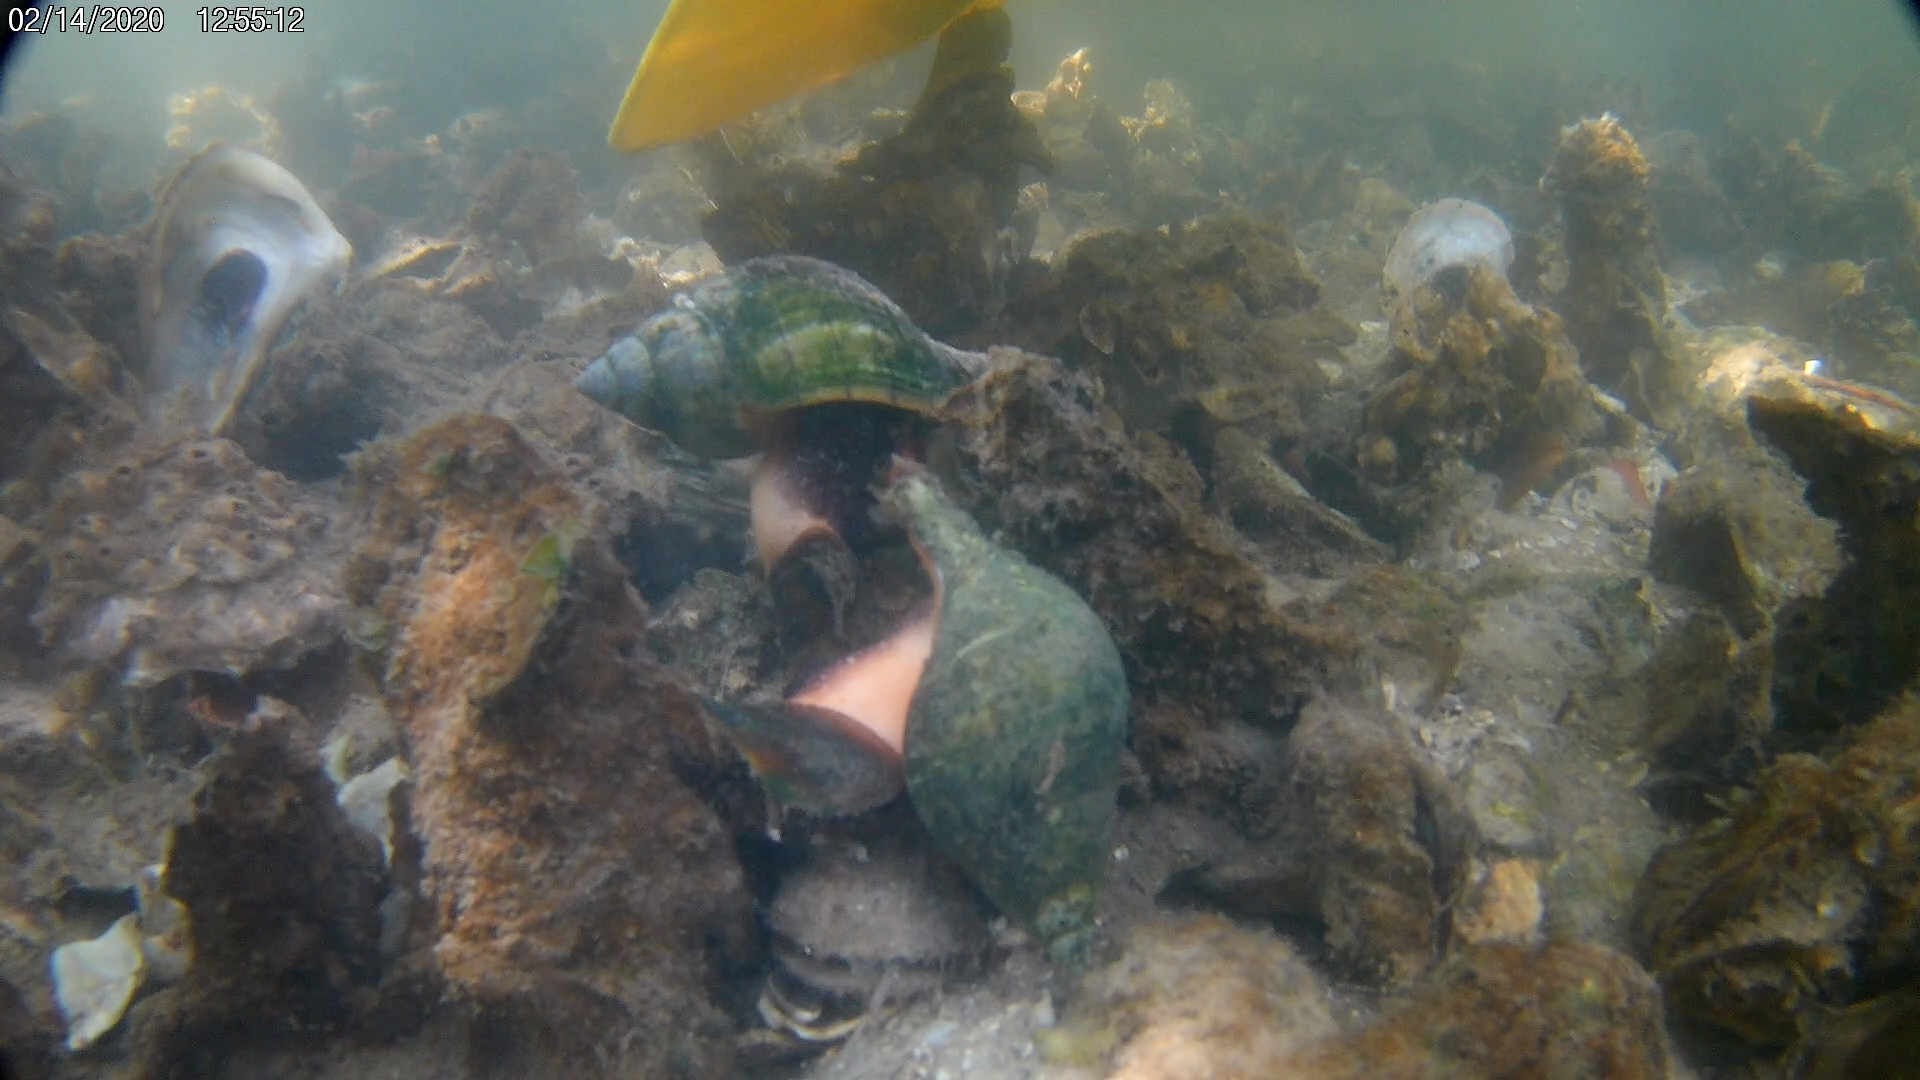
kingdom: Animalia
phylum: Mollusca
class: Gastropoda
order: Neogastropoda
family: Fasciolariidae
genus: Cinctura
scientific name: Cinctura hunteria
